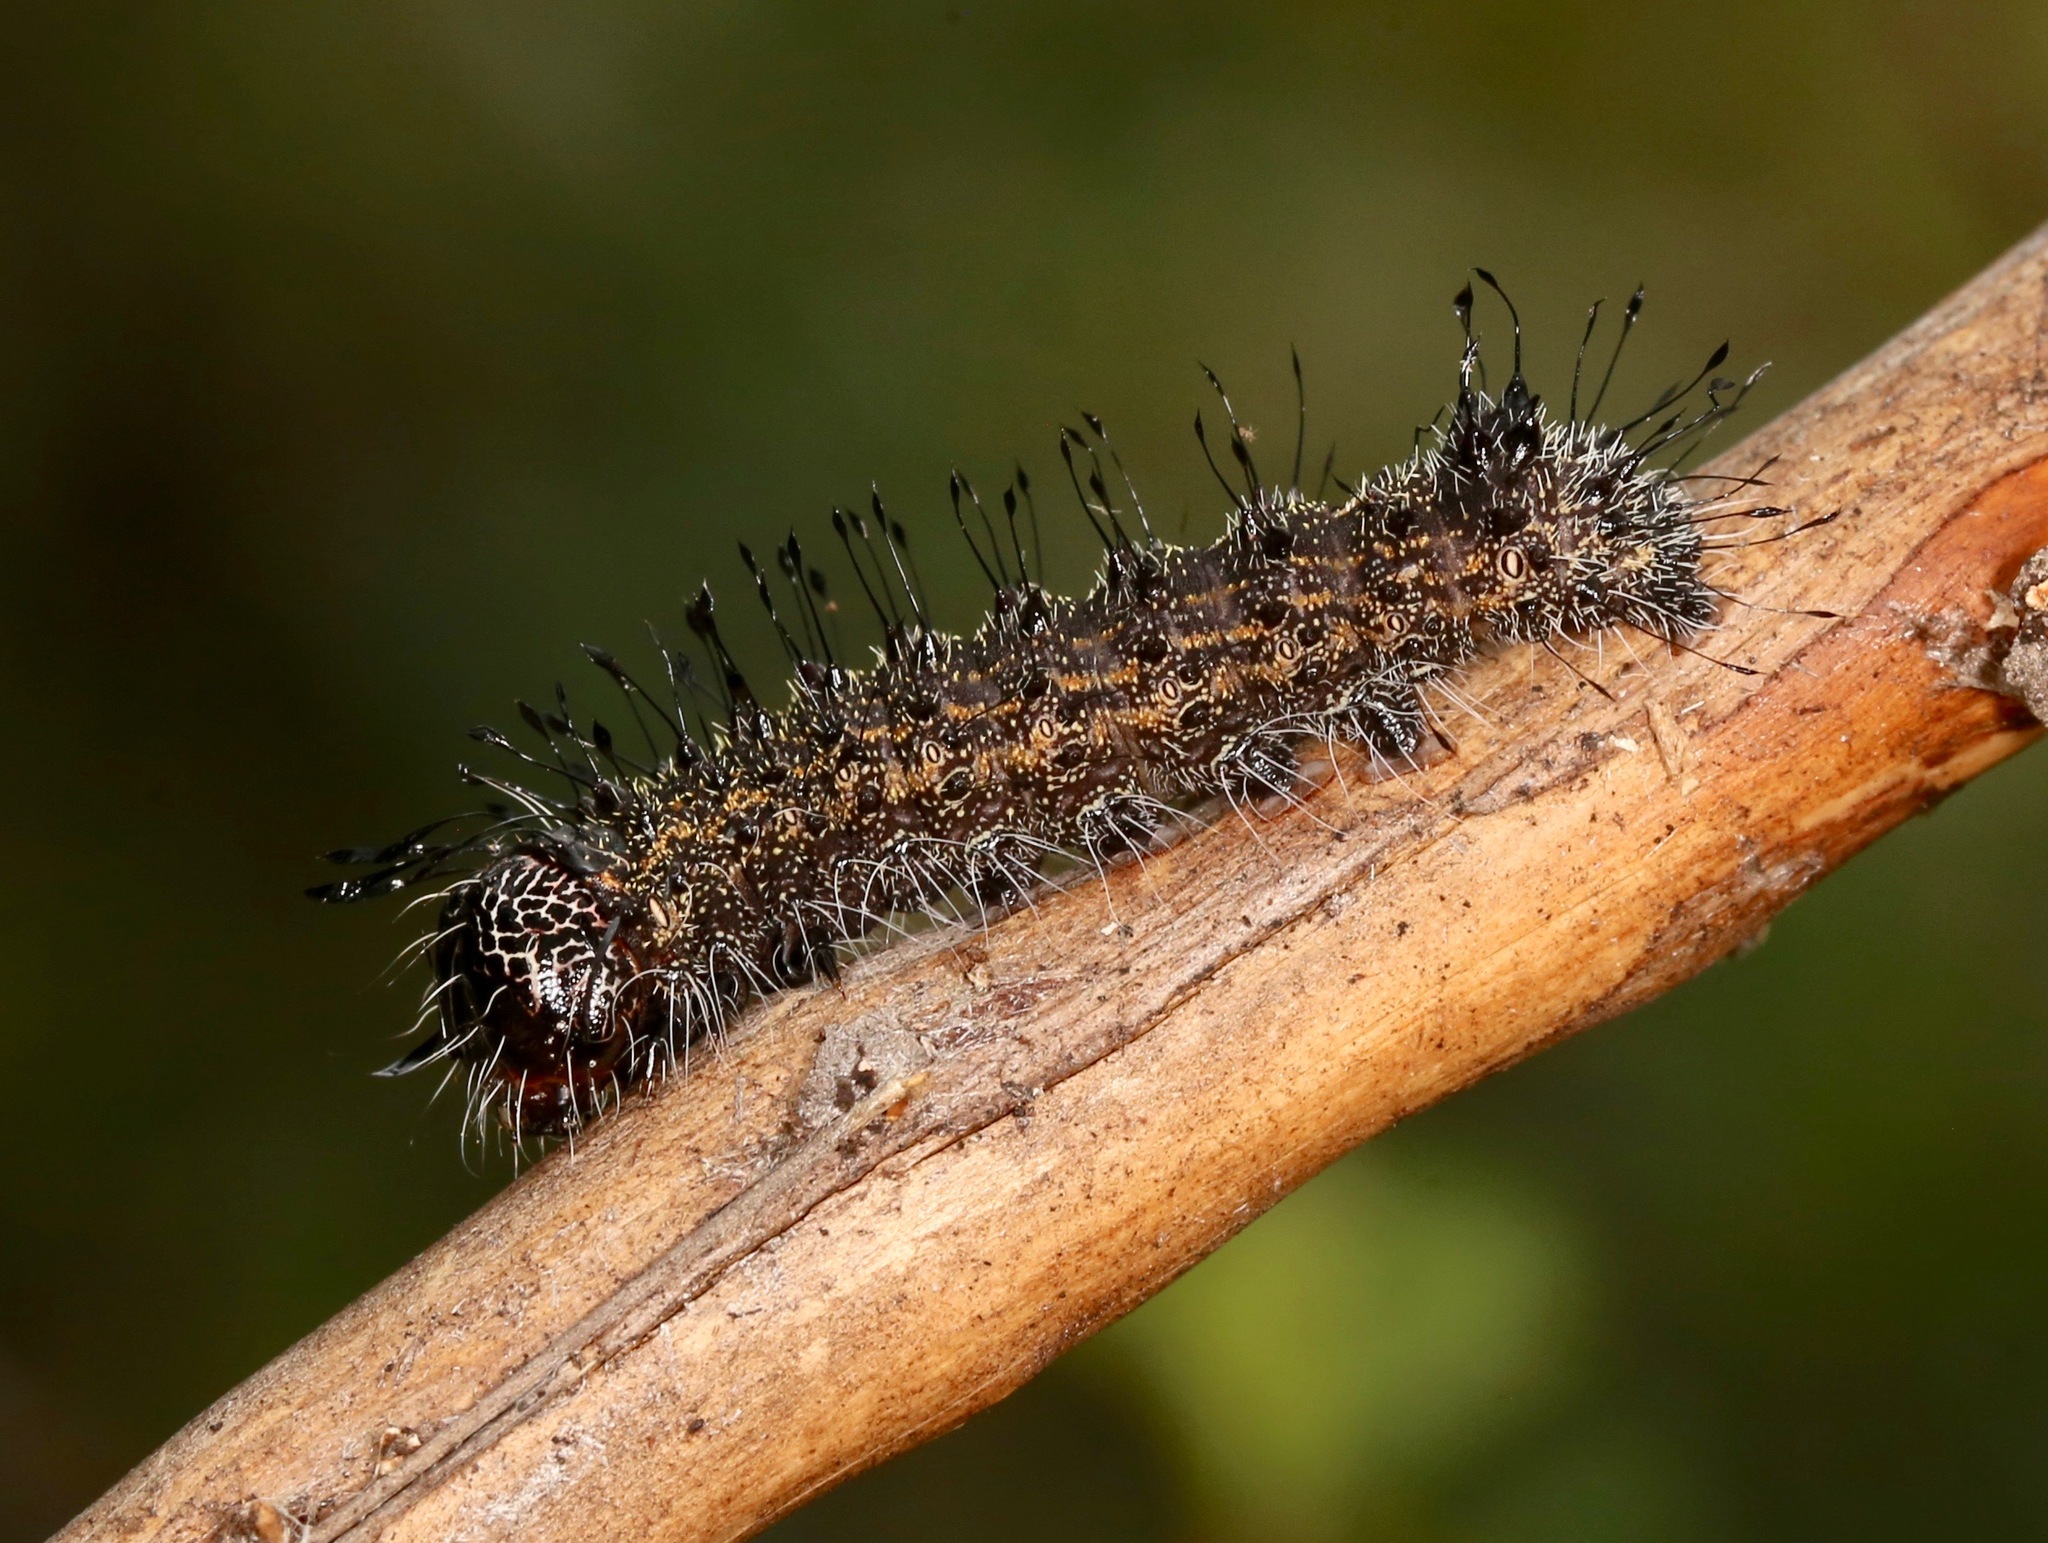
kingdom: Animalia
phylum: Arthropoda
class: Insecta
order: Lepidoptera
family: Noctuidae
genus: Acronicta
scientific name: Acronicta atristrigatus
